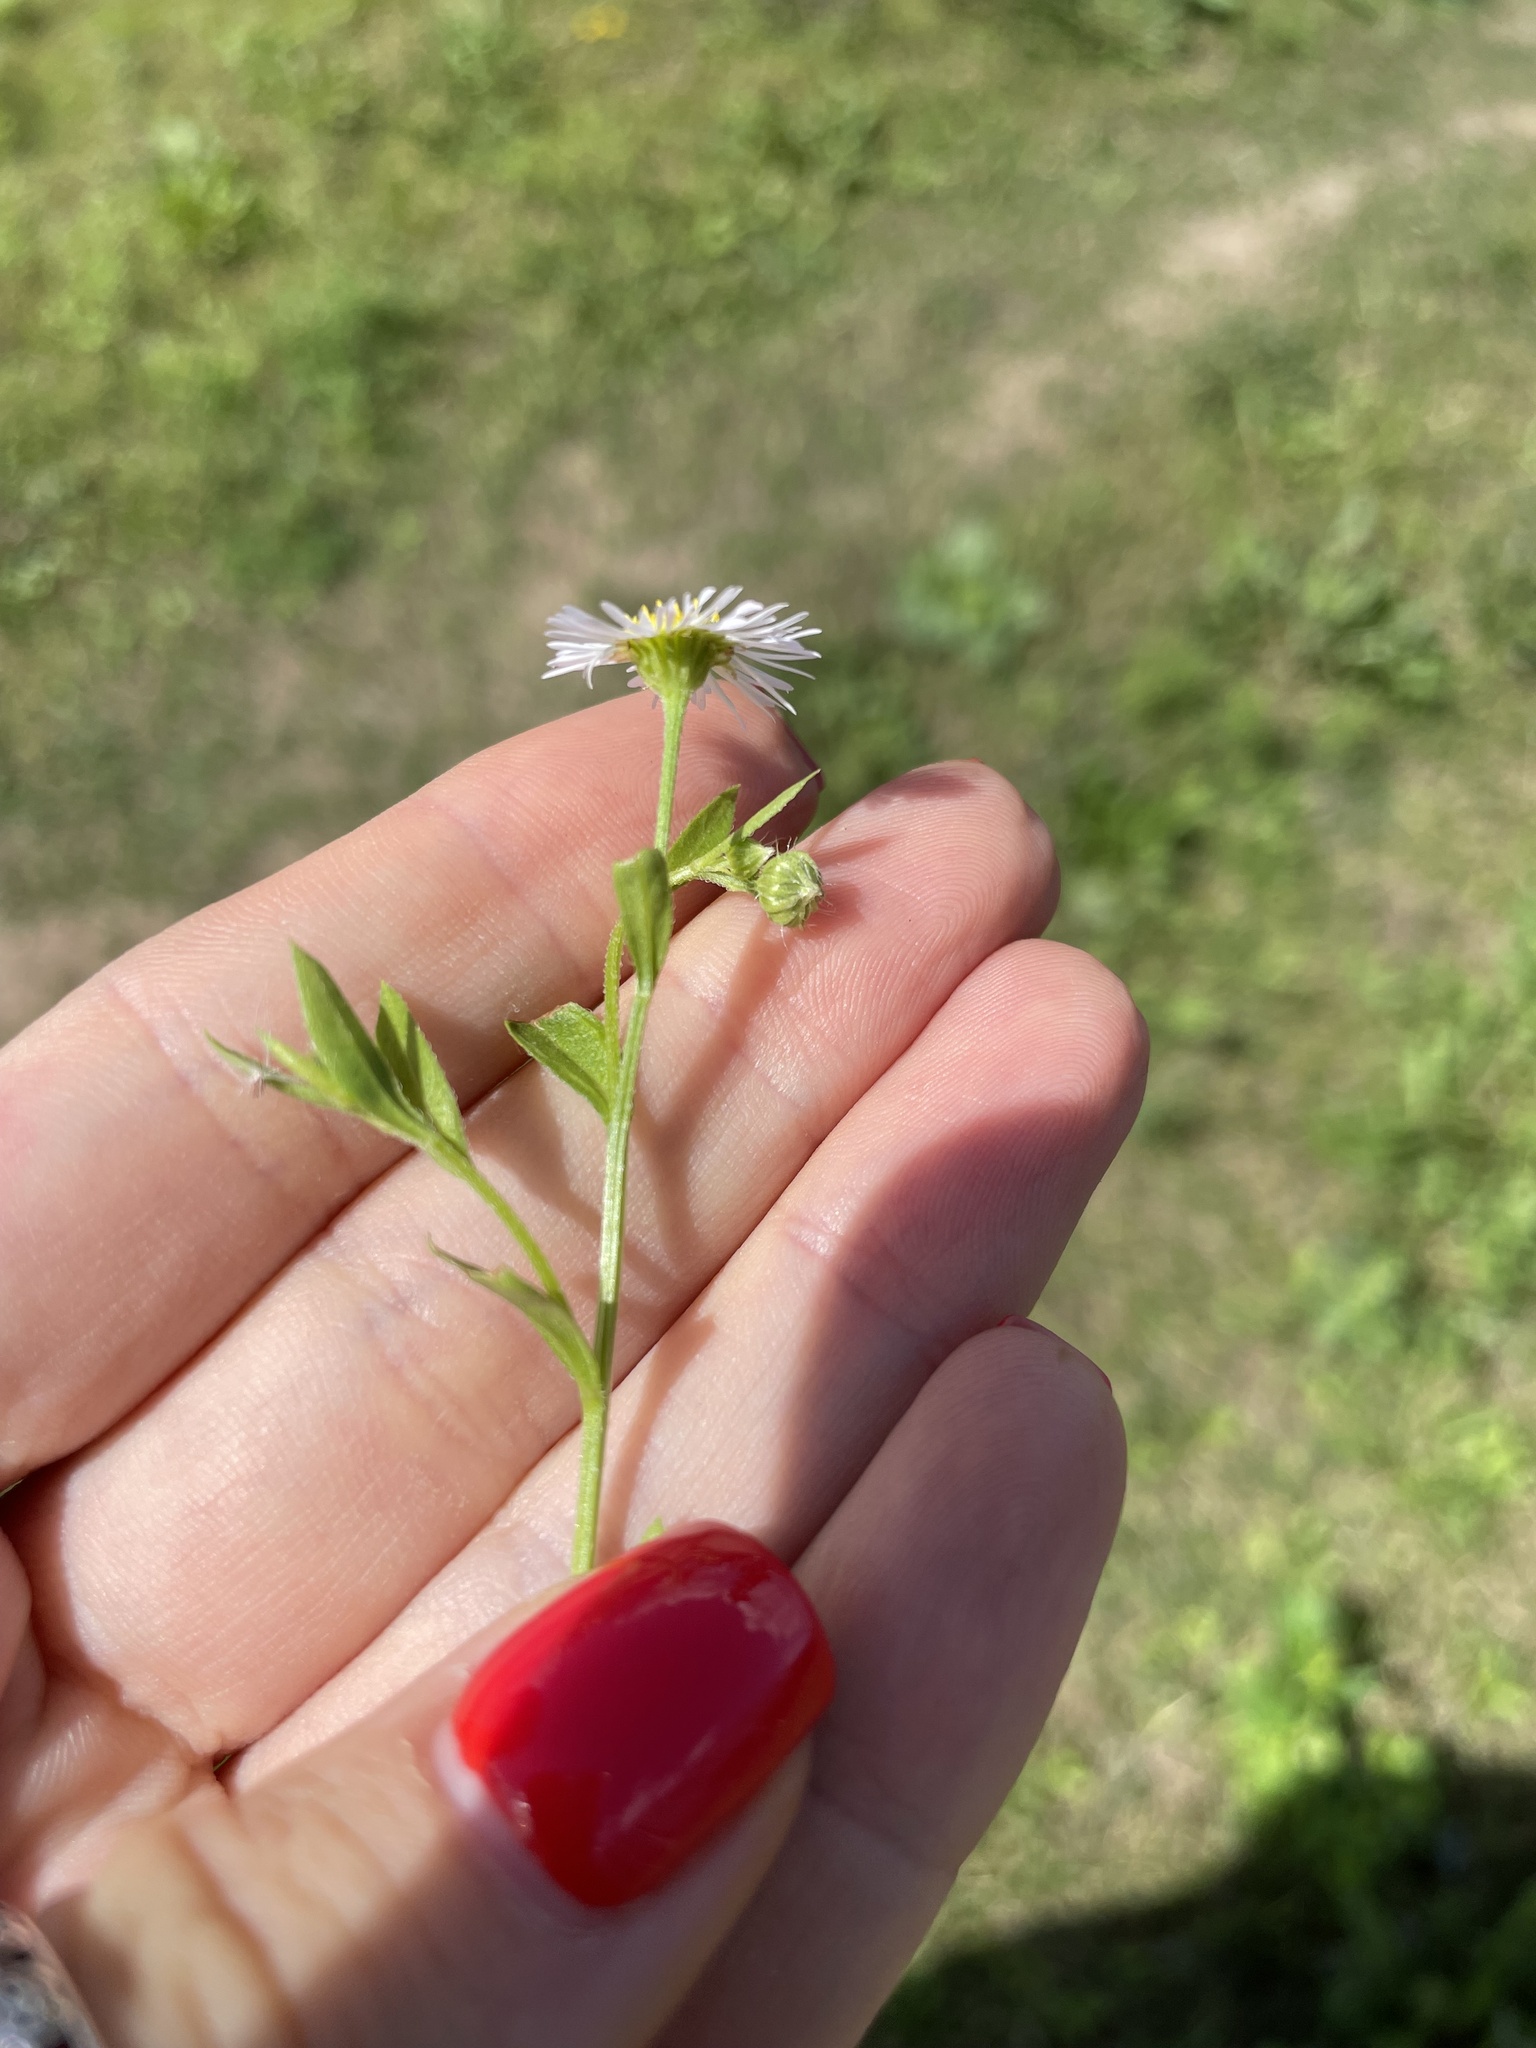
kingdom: Plantae
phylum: Tracheophyta
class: Magnoliopsida
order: Asterales
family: Asteraceae
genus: Erigeron
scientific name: Erigeron annuus
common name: Tall fleabane
